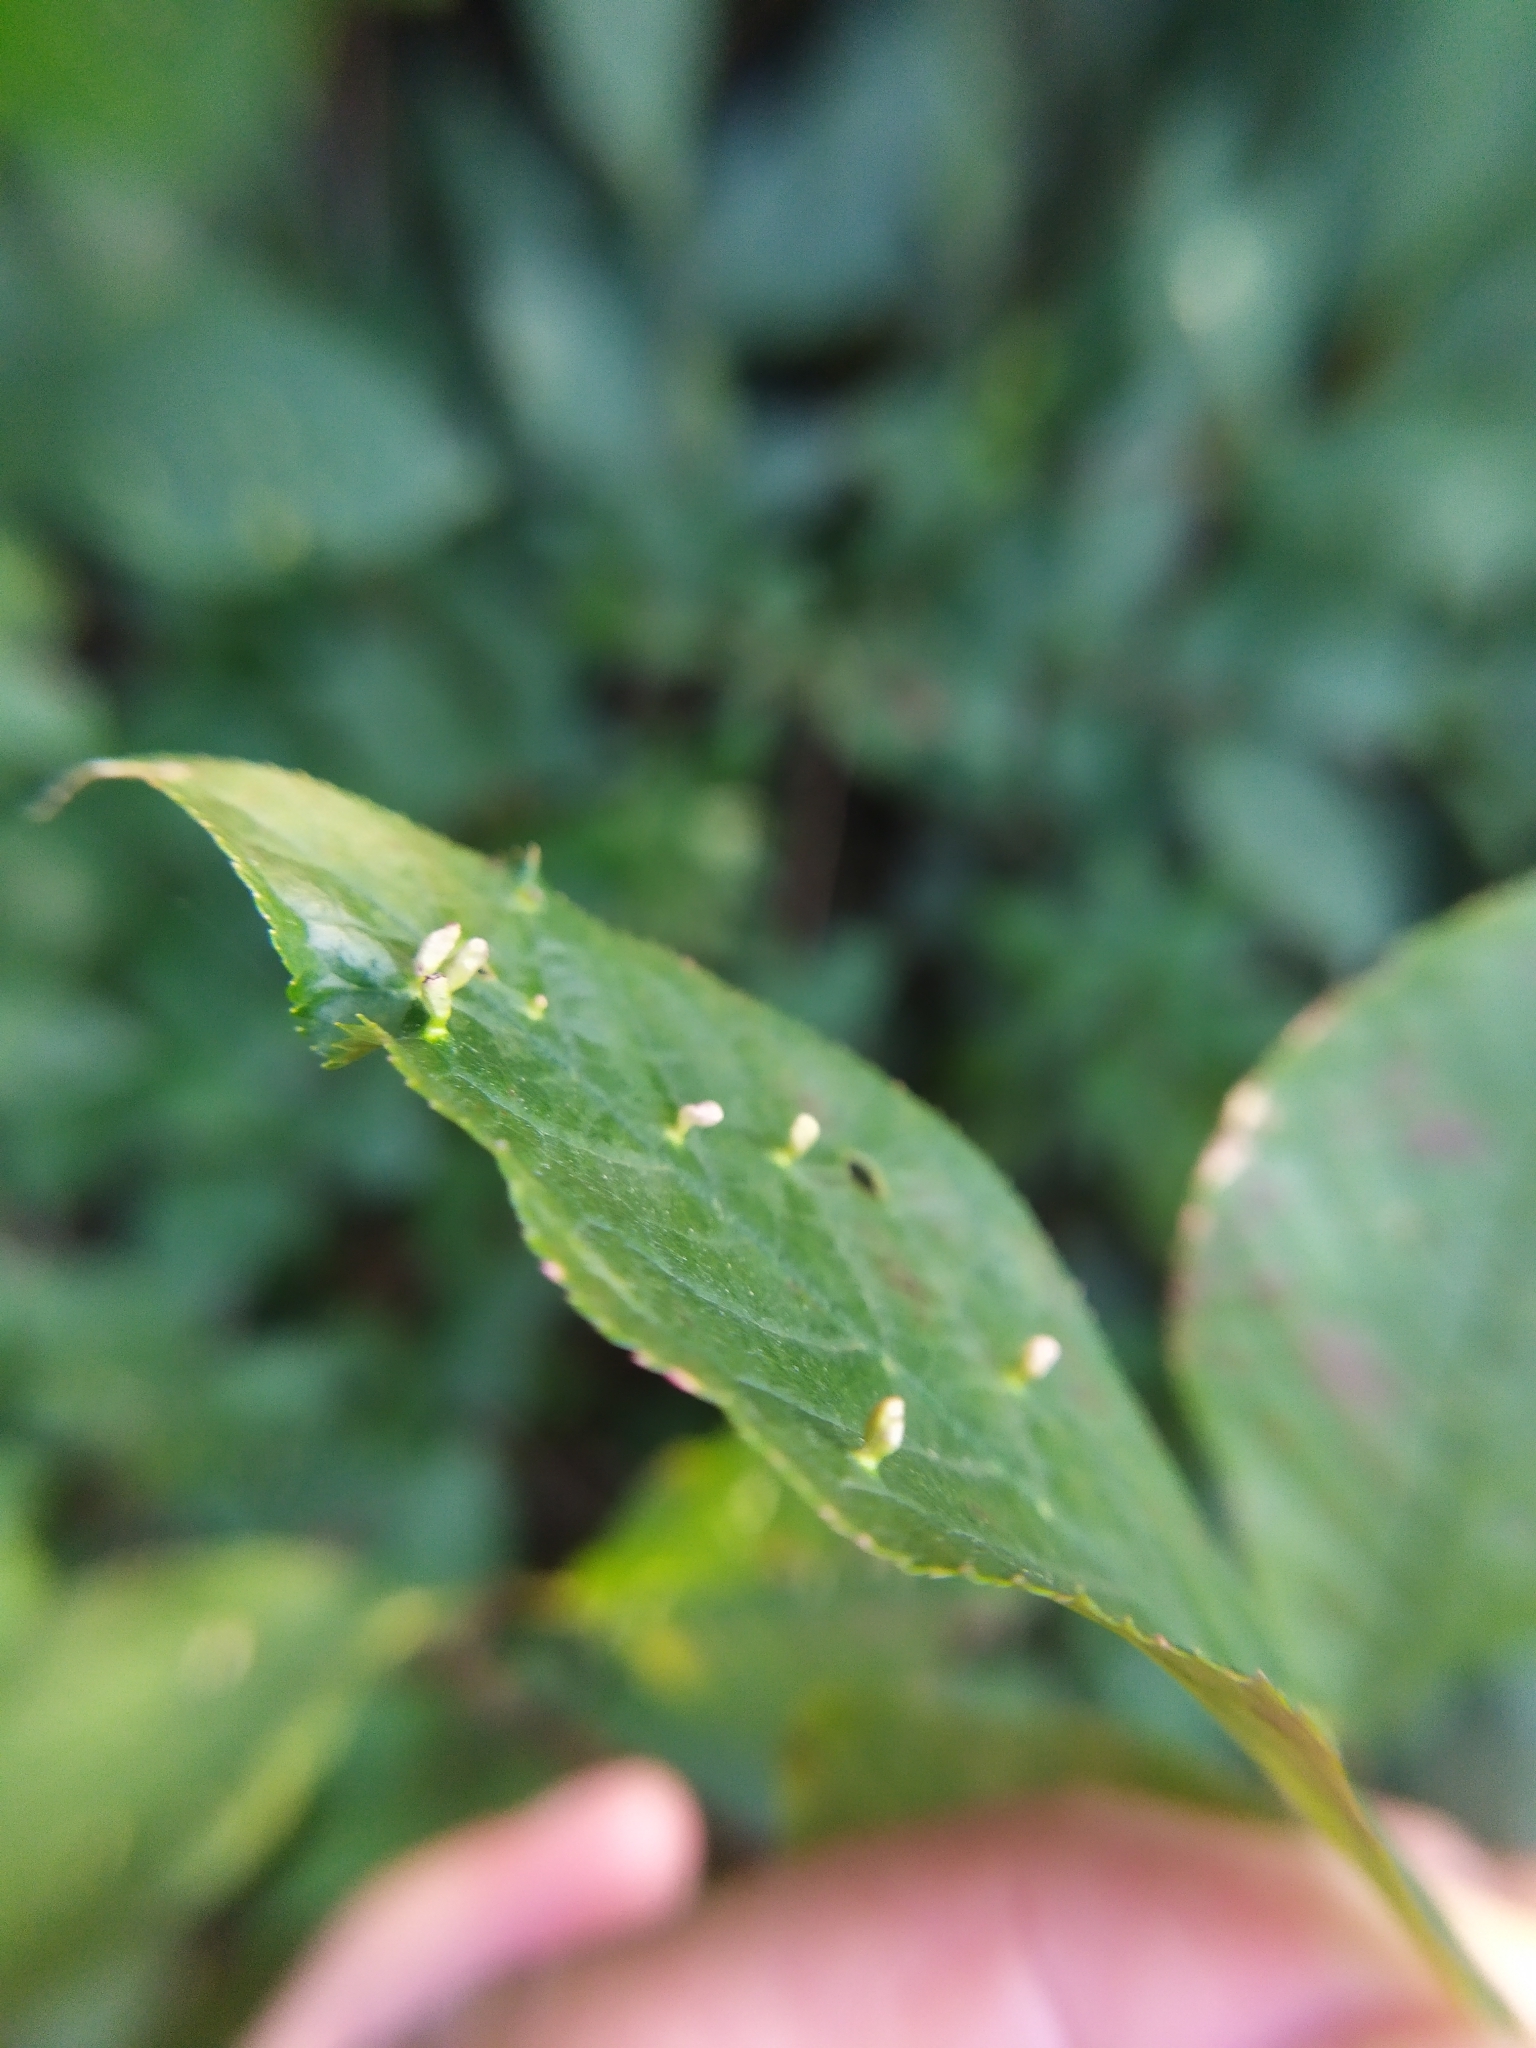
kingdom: Animalia
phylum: Arthropoda
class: Arachnida
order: Trombidiformes
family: Eriophyidae
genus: Phyllocoptes
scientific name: Phyllocoptes eupadi
